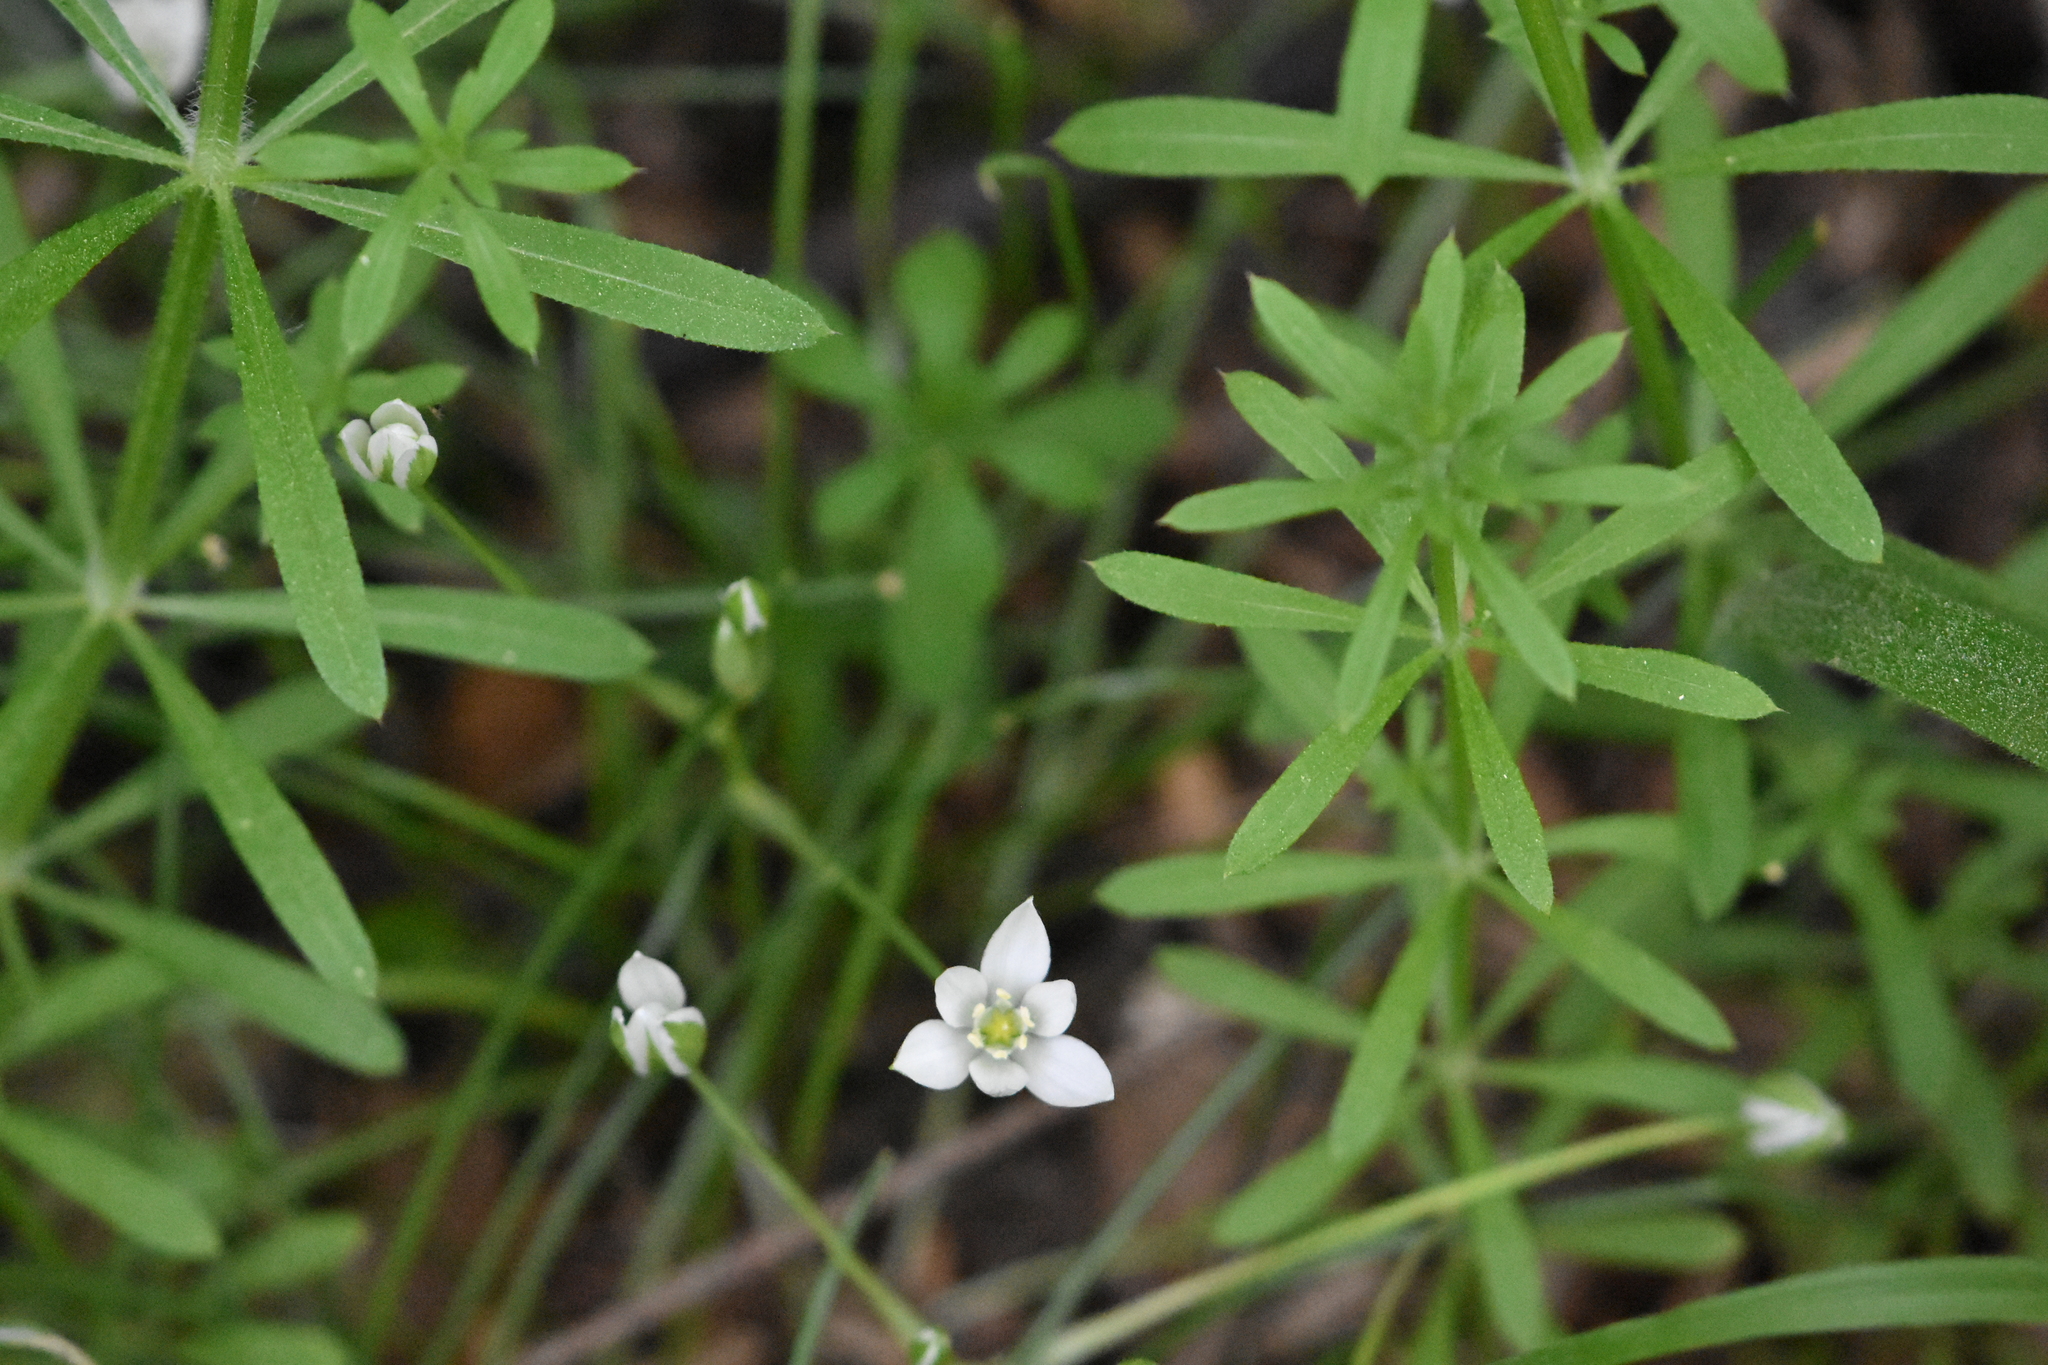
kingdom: Plantae
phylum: Tracheophyta
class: Liliopsida
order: Asparagales
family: Asparagaceae
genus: Ornithogalum
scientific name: Ornithogalum woronowii
